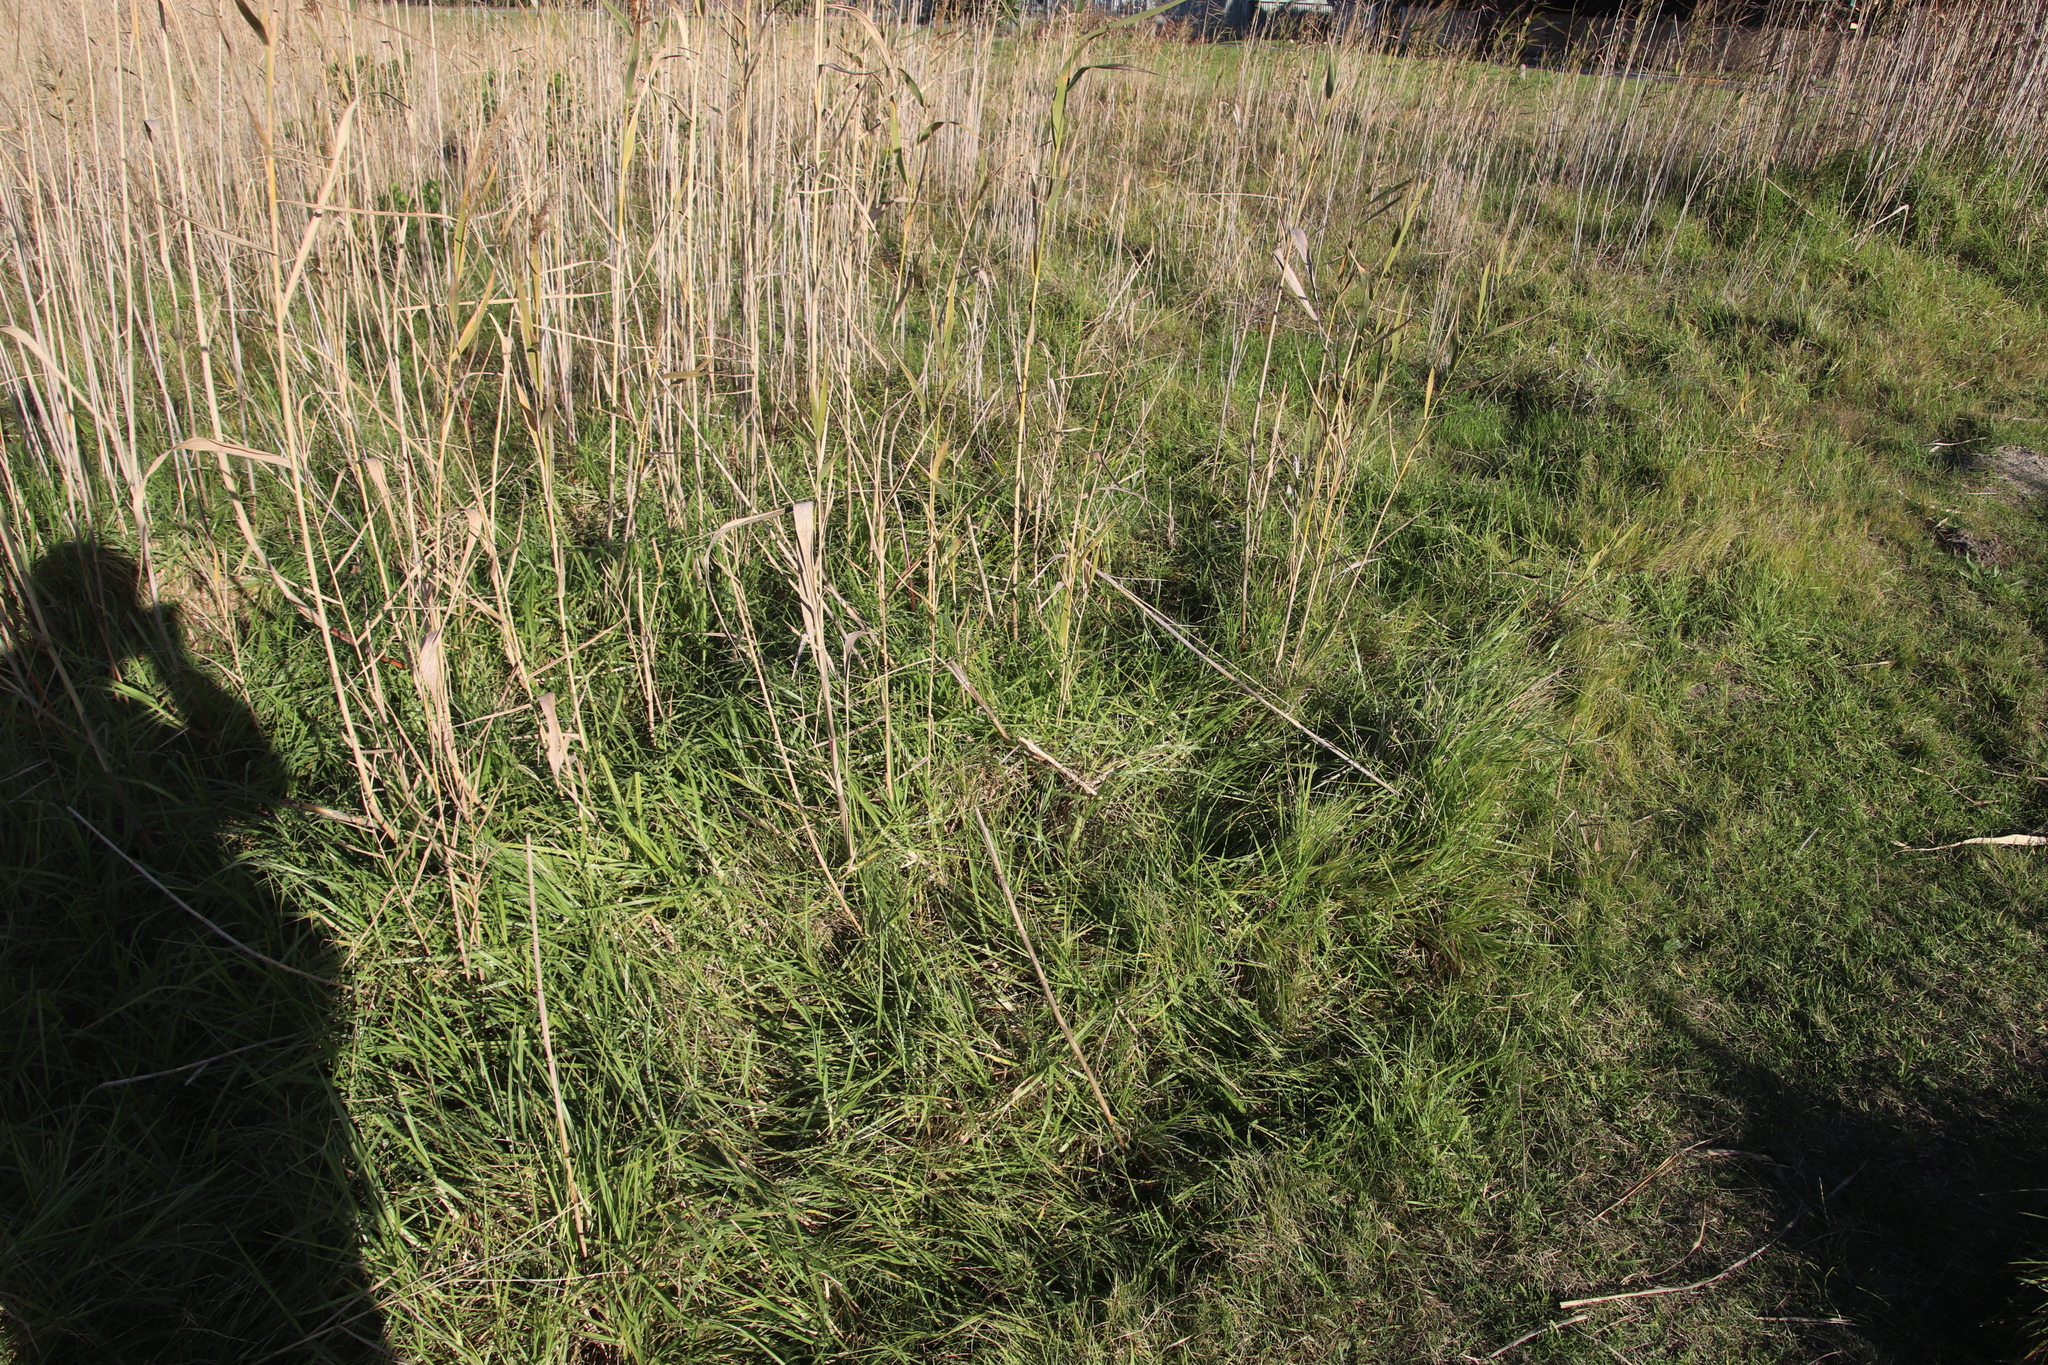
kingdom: Plantae
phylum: Tracheophyta
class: Liliopsida
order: Poales
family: Poaceae
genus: Cenchrus
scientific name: Cenchrus clandestinus
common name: Kikuyugrass
